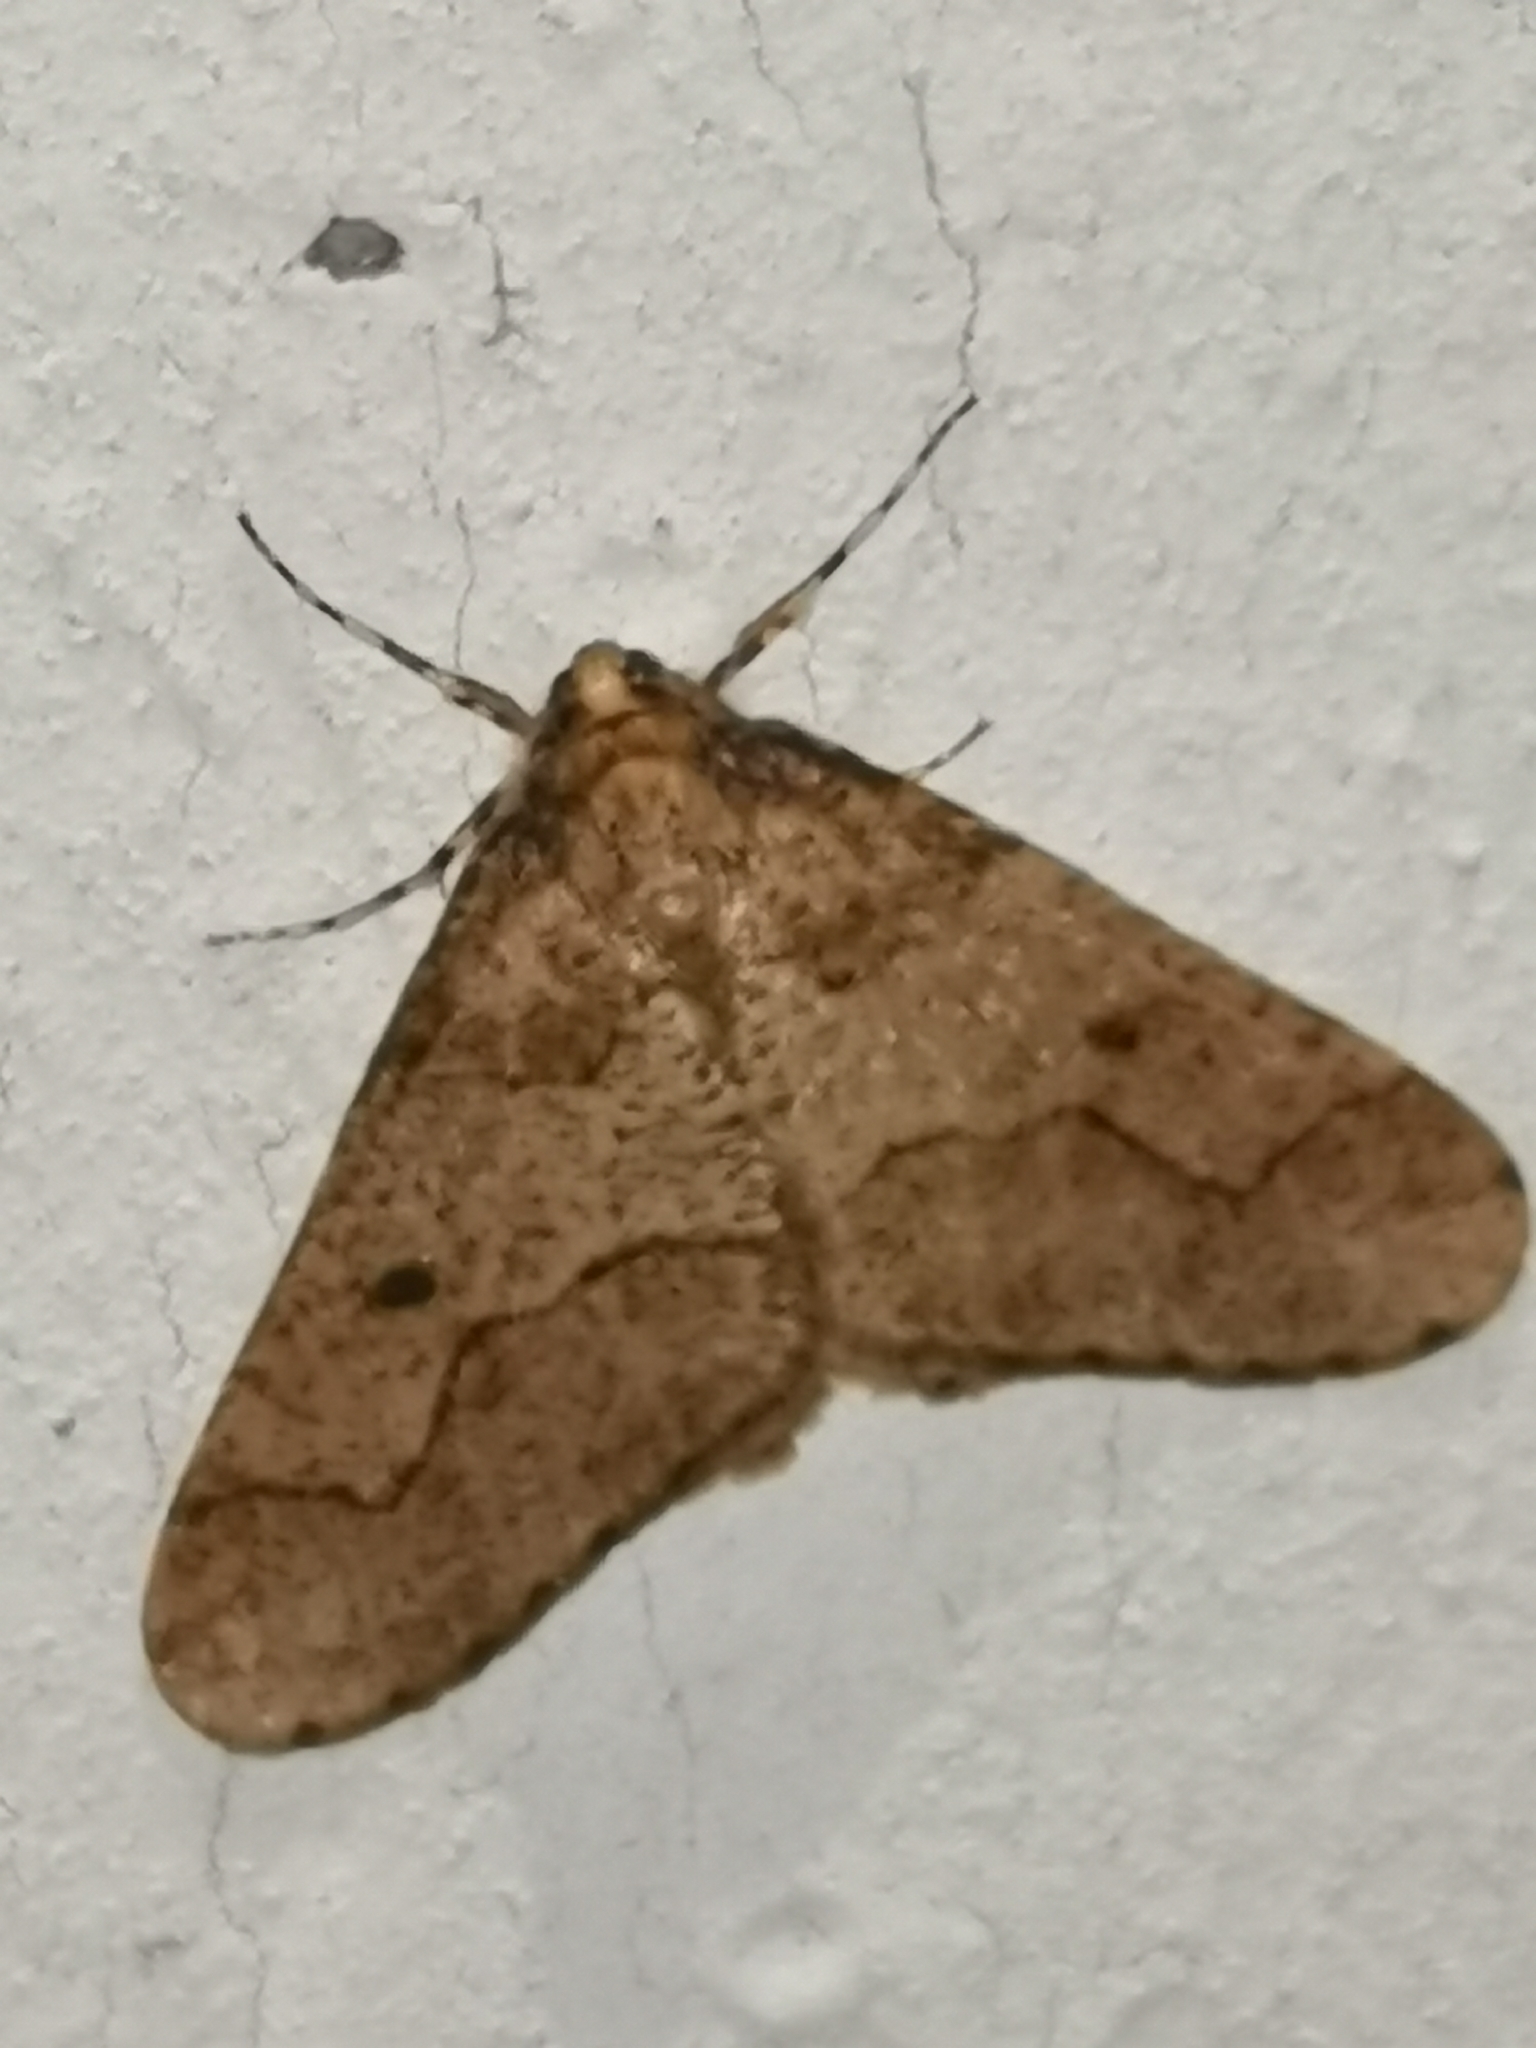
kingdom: Animalia
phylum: Arthropoda
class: Insecta
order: Lepidoptera
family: Geometridae
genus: Erannis
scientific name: Erannis defoliaria
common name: Mottled umber
